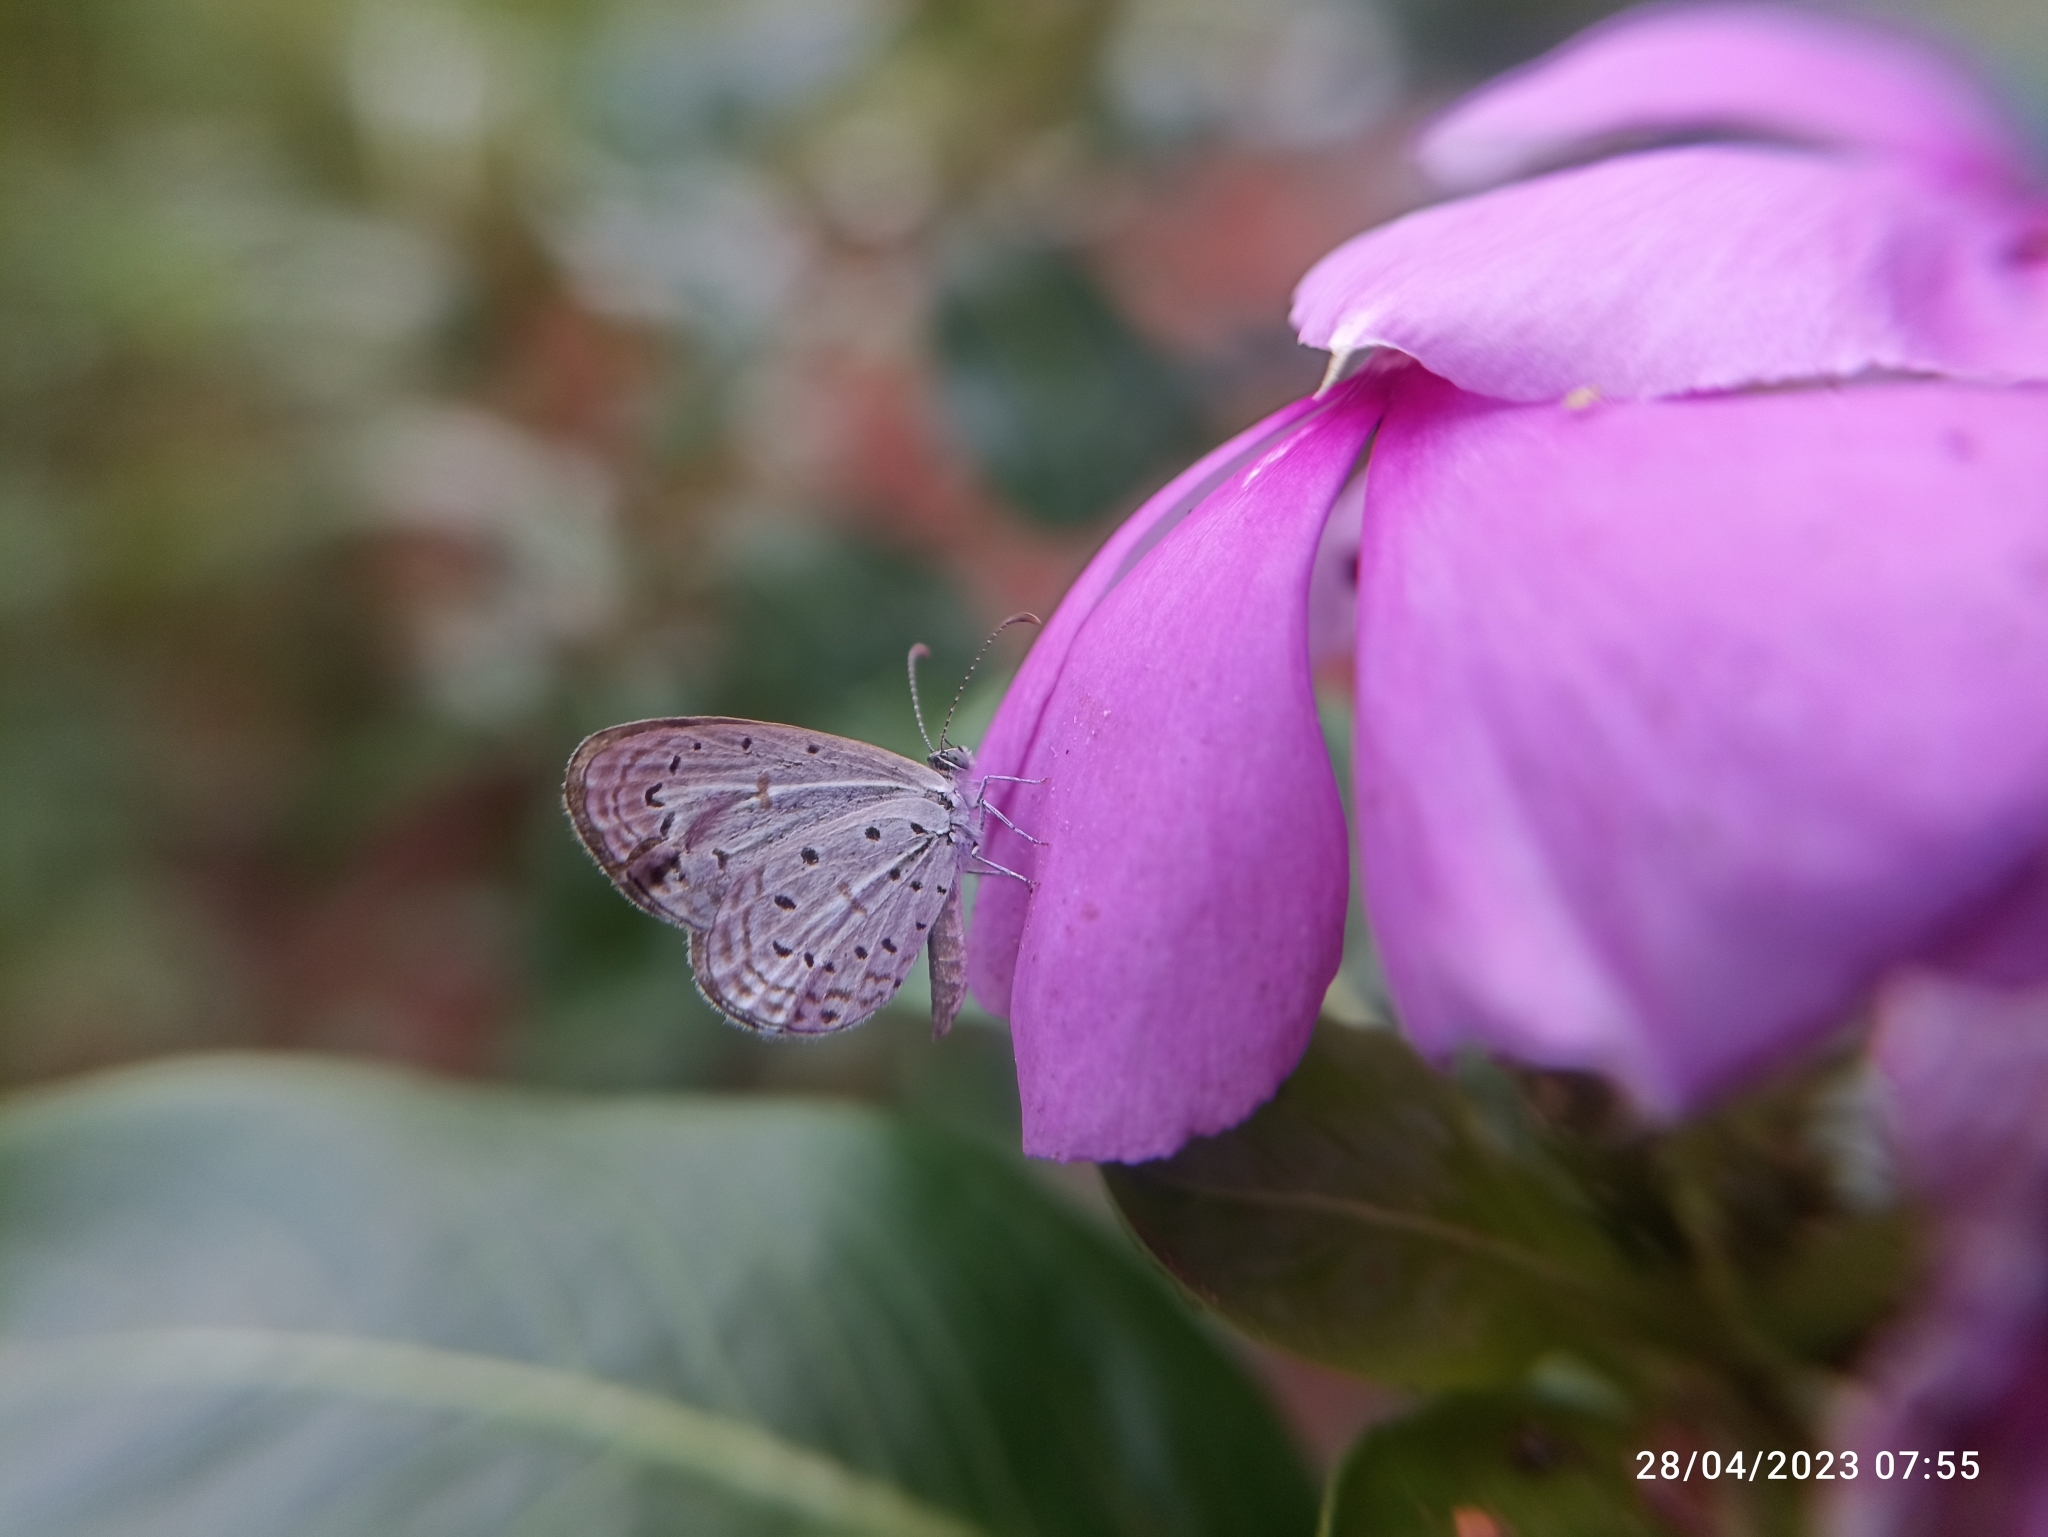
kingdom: Animalia
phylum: Arthropoda
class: Insecta
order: Lepidoptera
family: Lycaenidae
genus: Zizula
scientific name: Zizula hylax
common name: Gaika blue
